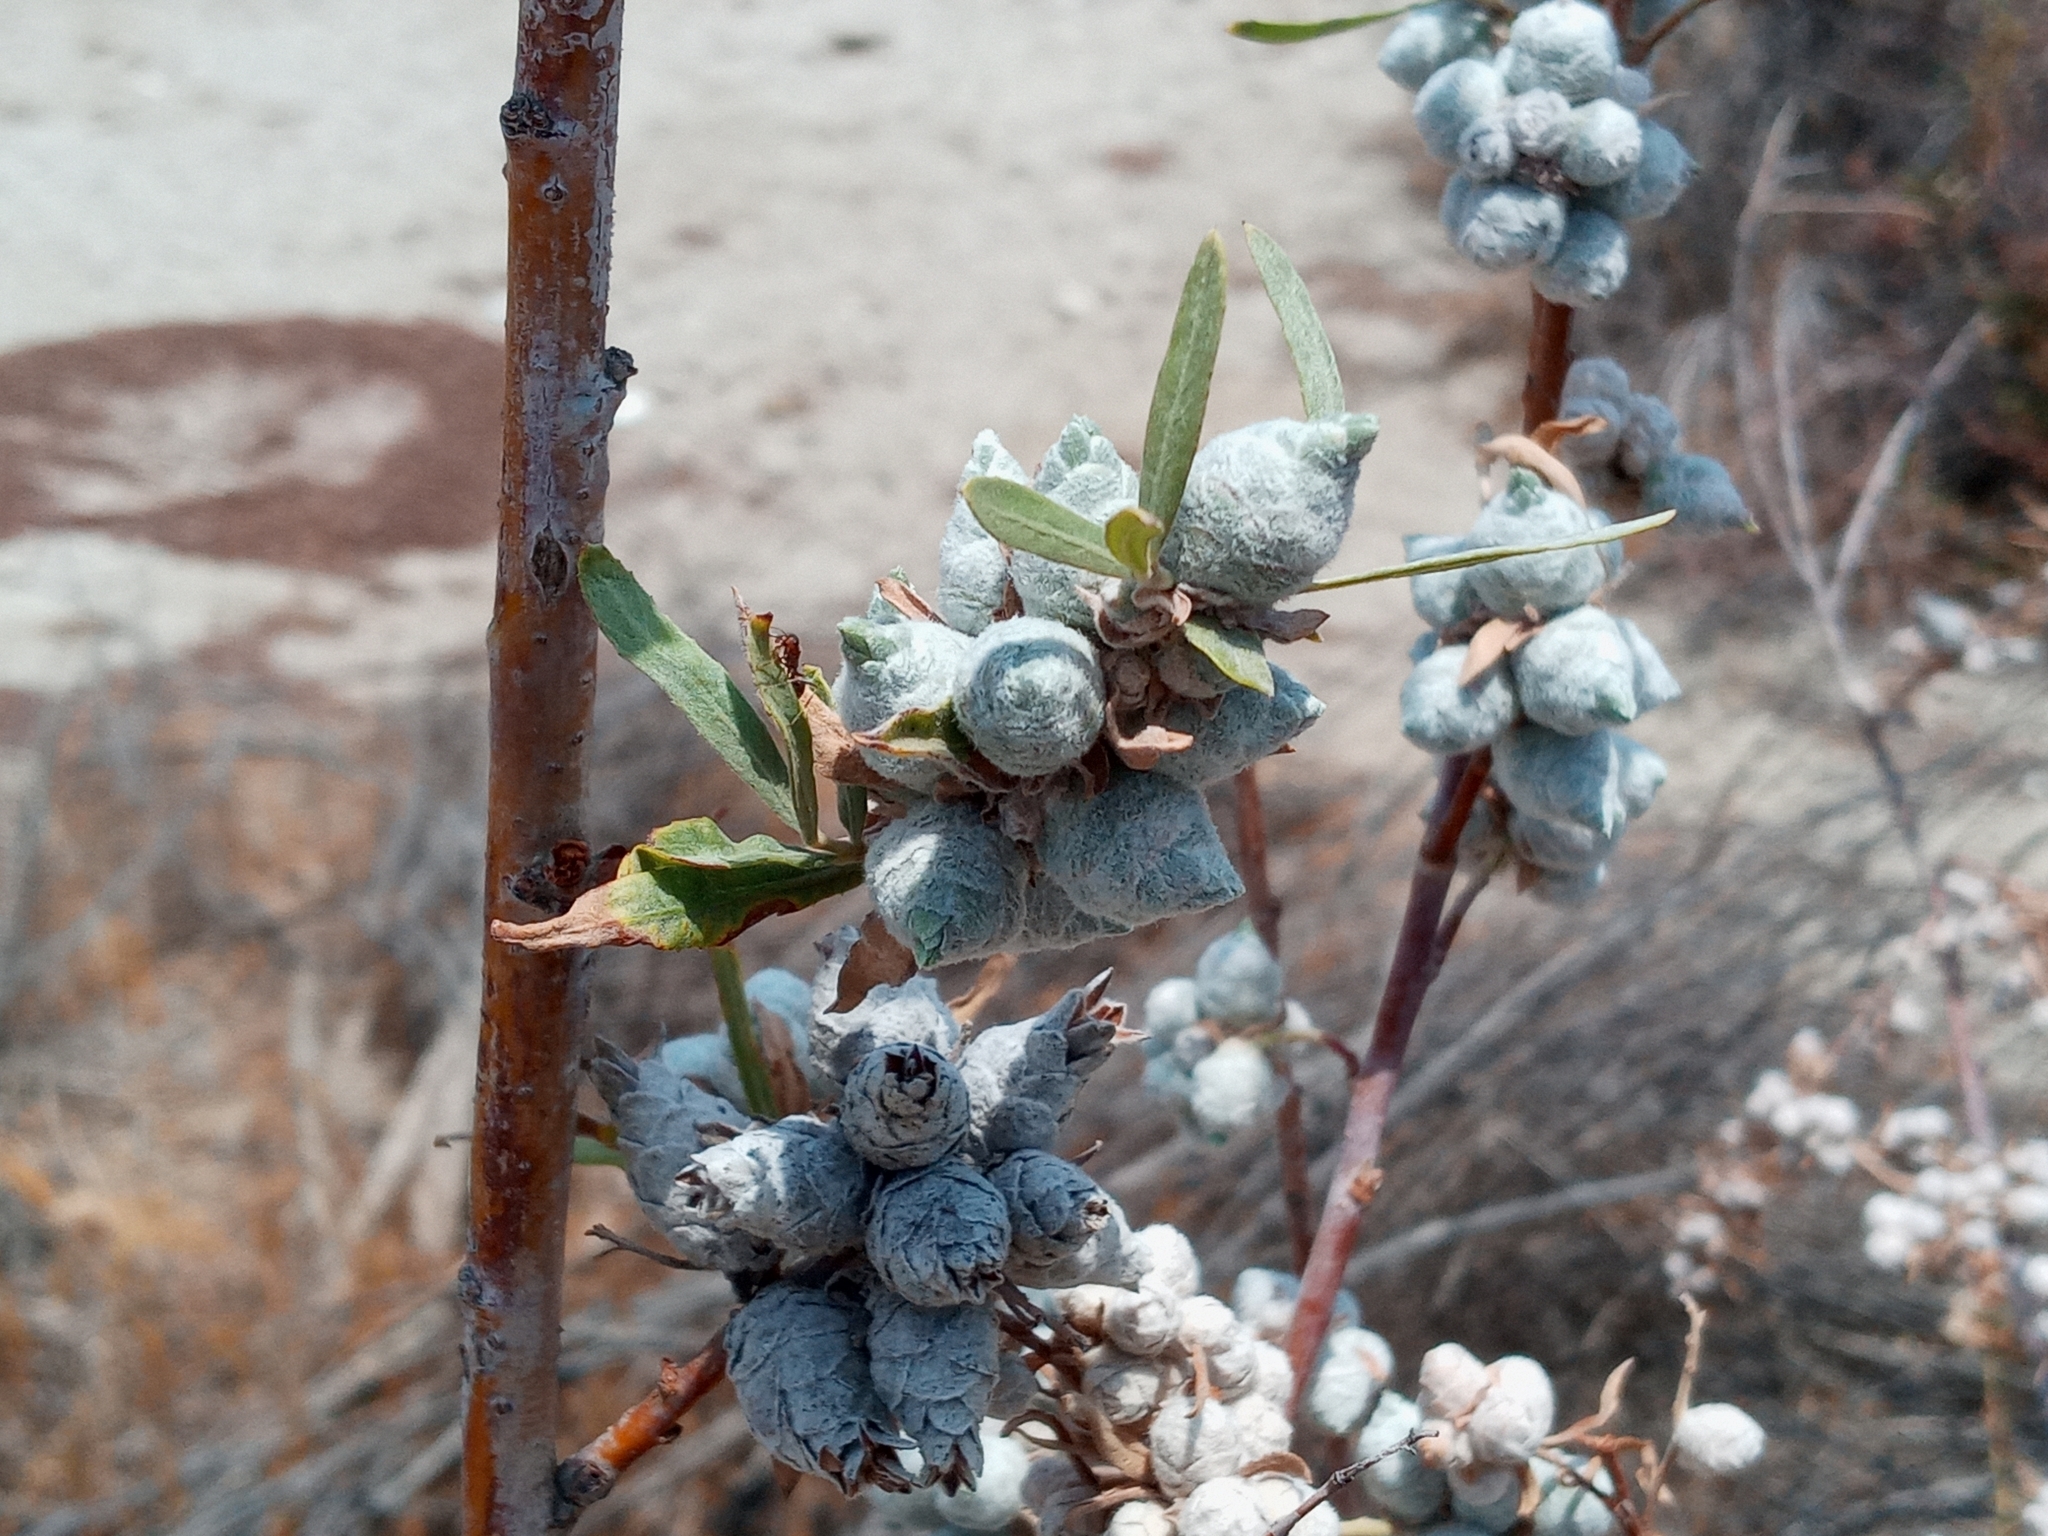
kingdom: Animalia
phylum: Arthropoda
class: Insecta
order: Diptera
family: Cecidomyiidae
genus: Rabdophaga
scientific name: Rabdophaga strobiloides
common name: Willow pinecone gall midge
